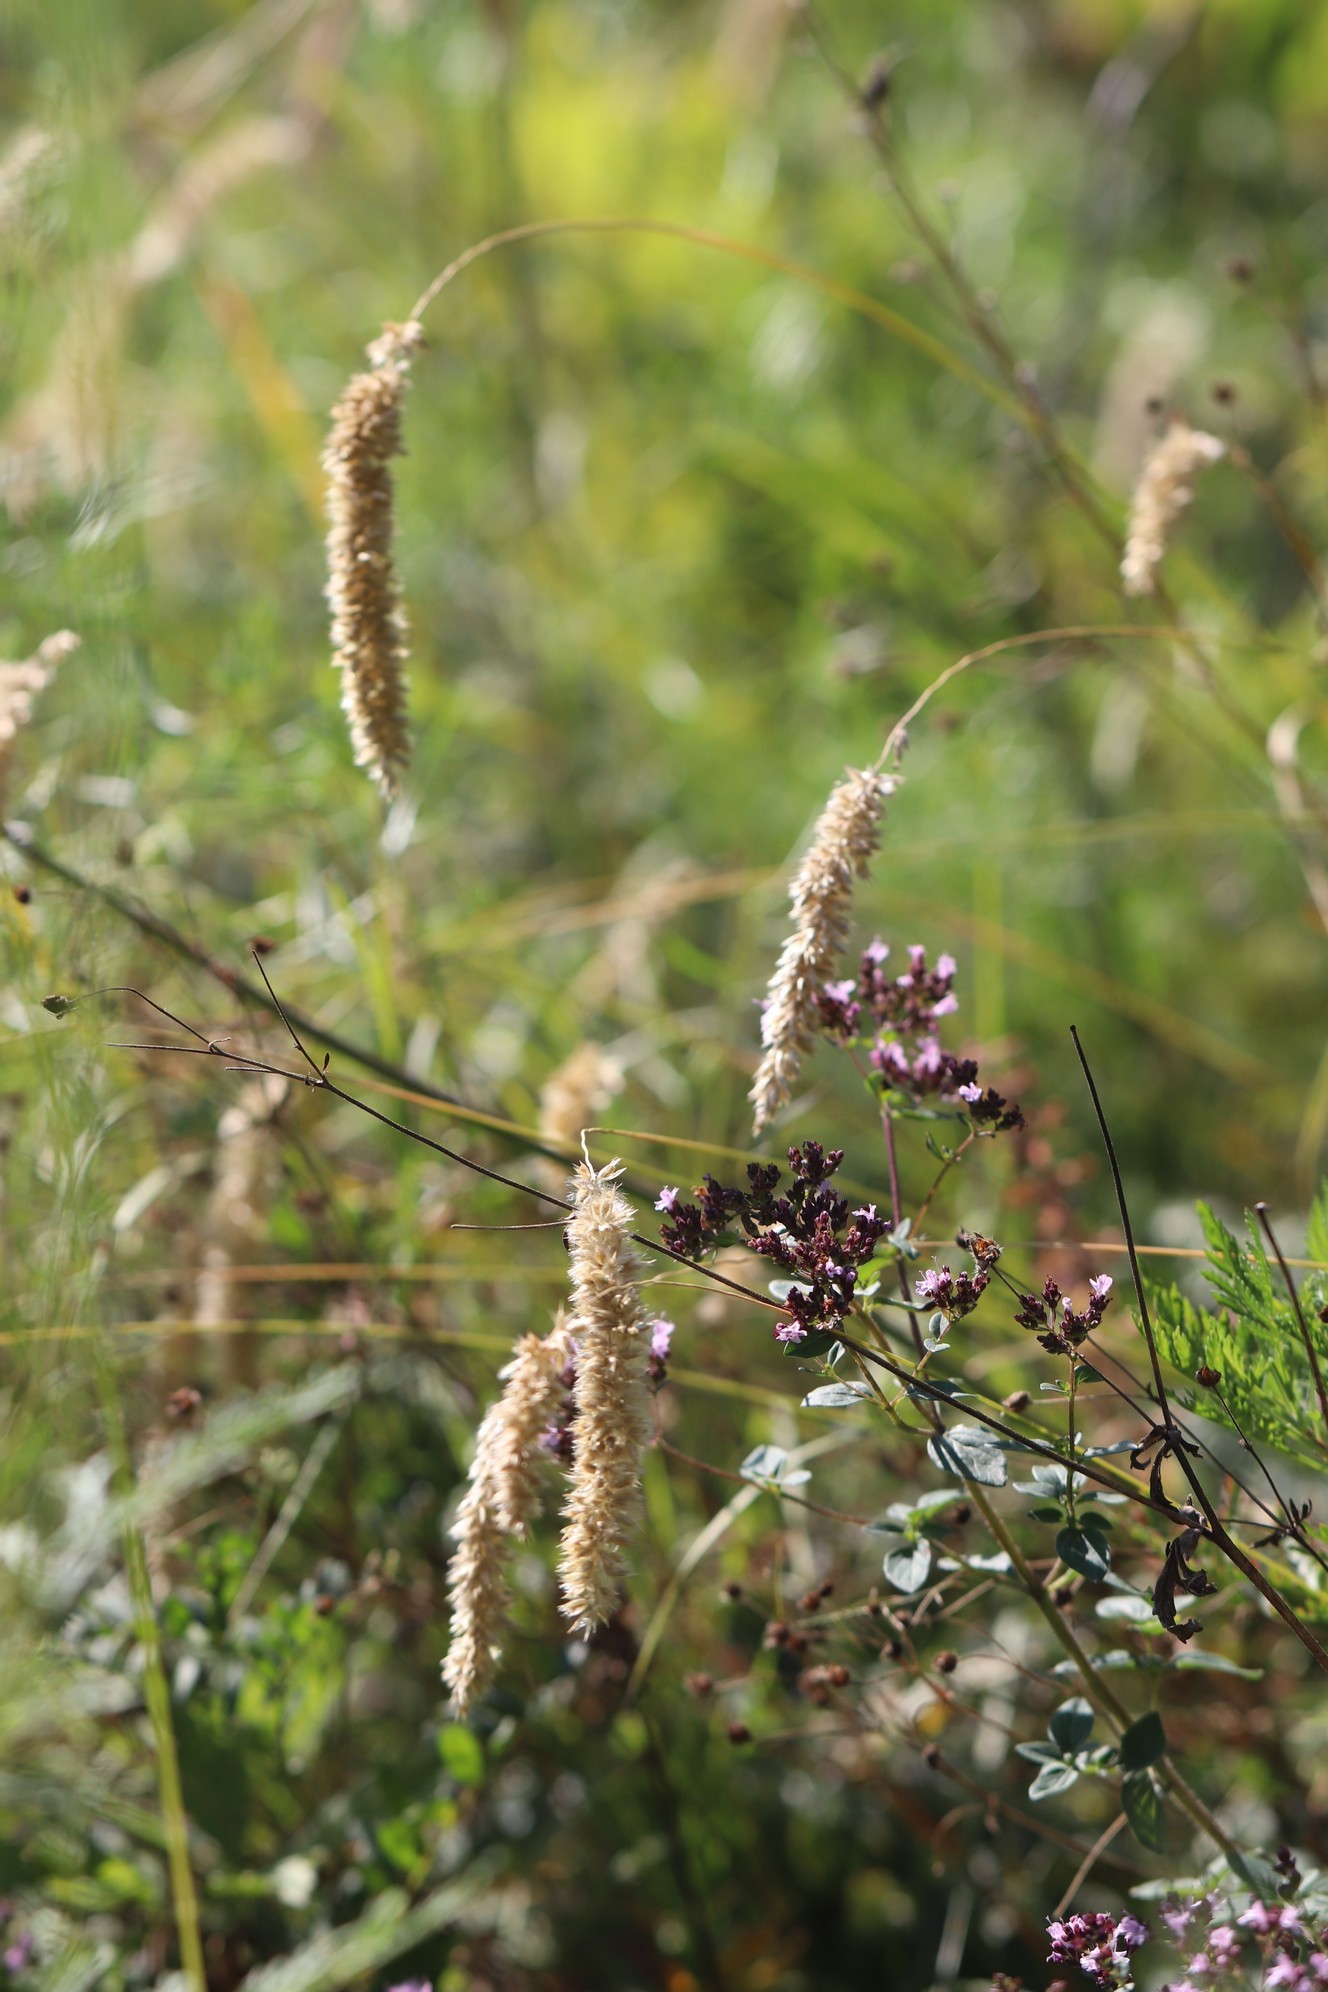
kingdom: Plantae
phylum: Tracheophyta
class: Liliopsida
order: Poales
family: Poaceae
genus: Melica
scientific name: Melica transsilvanica
